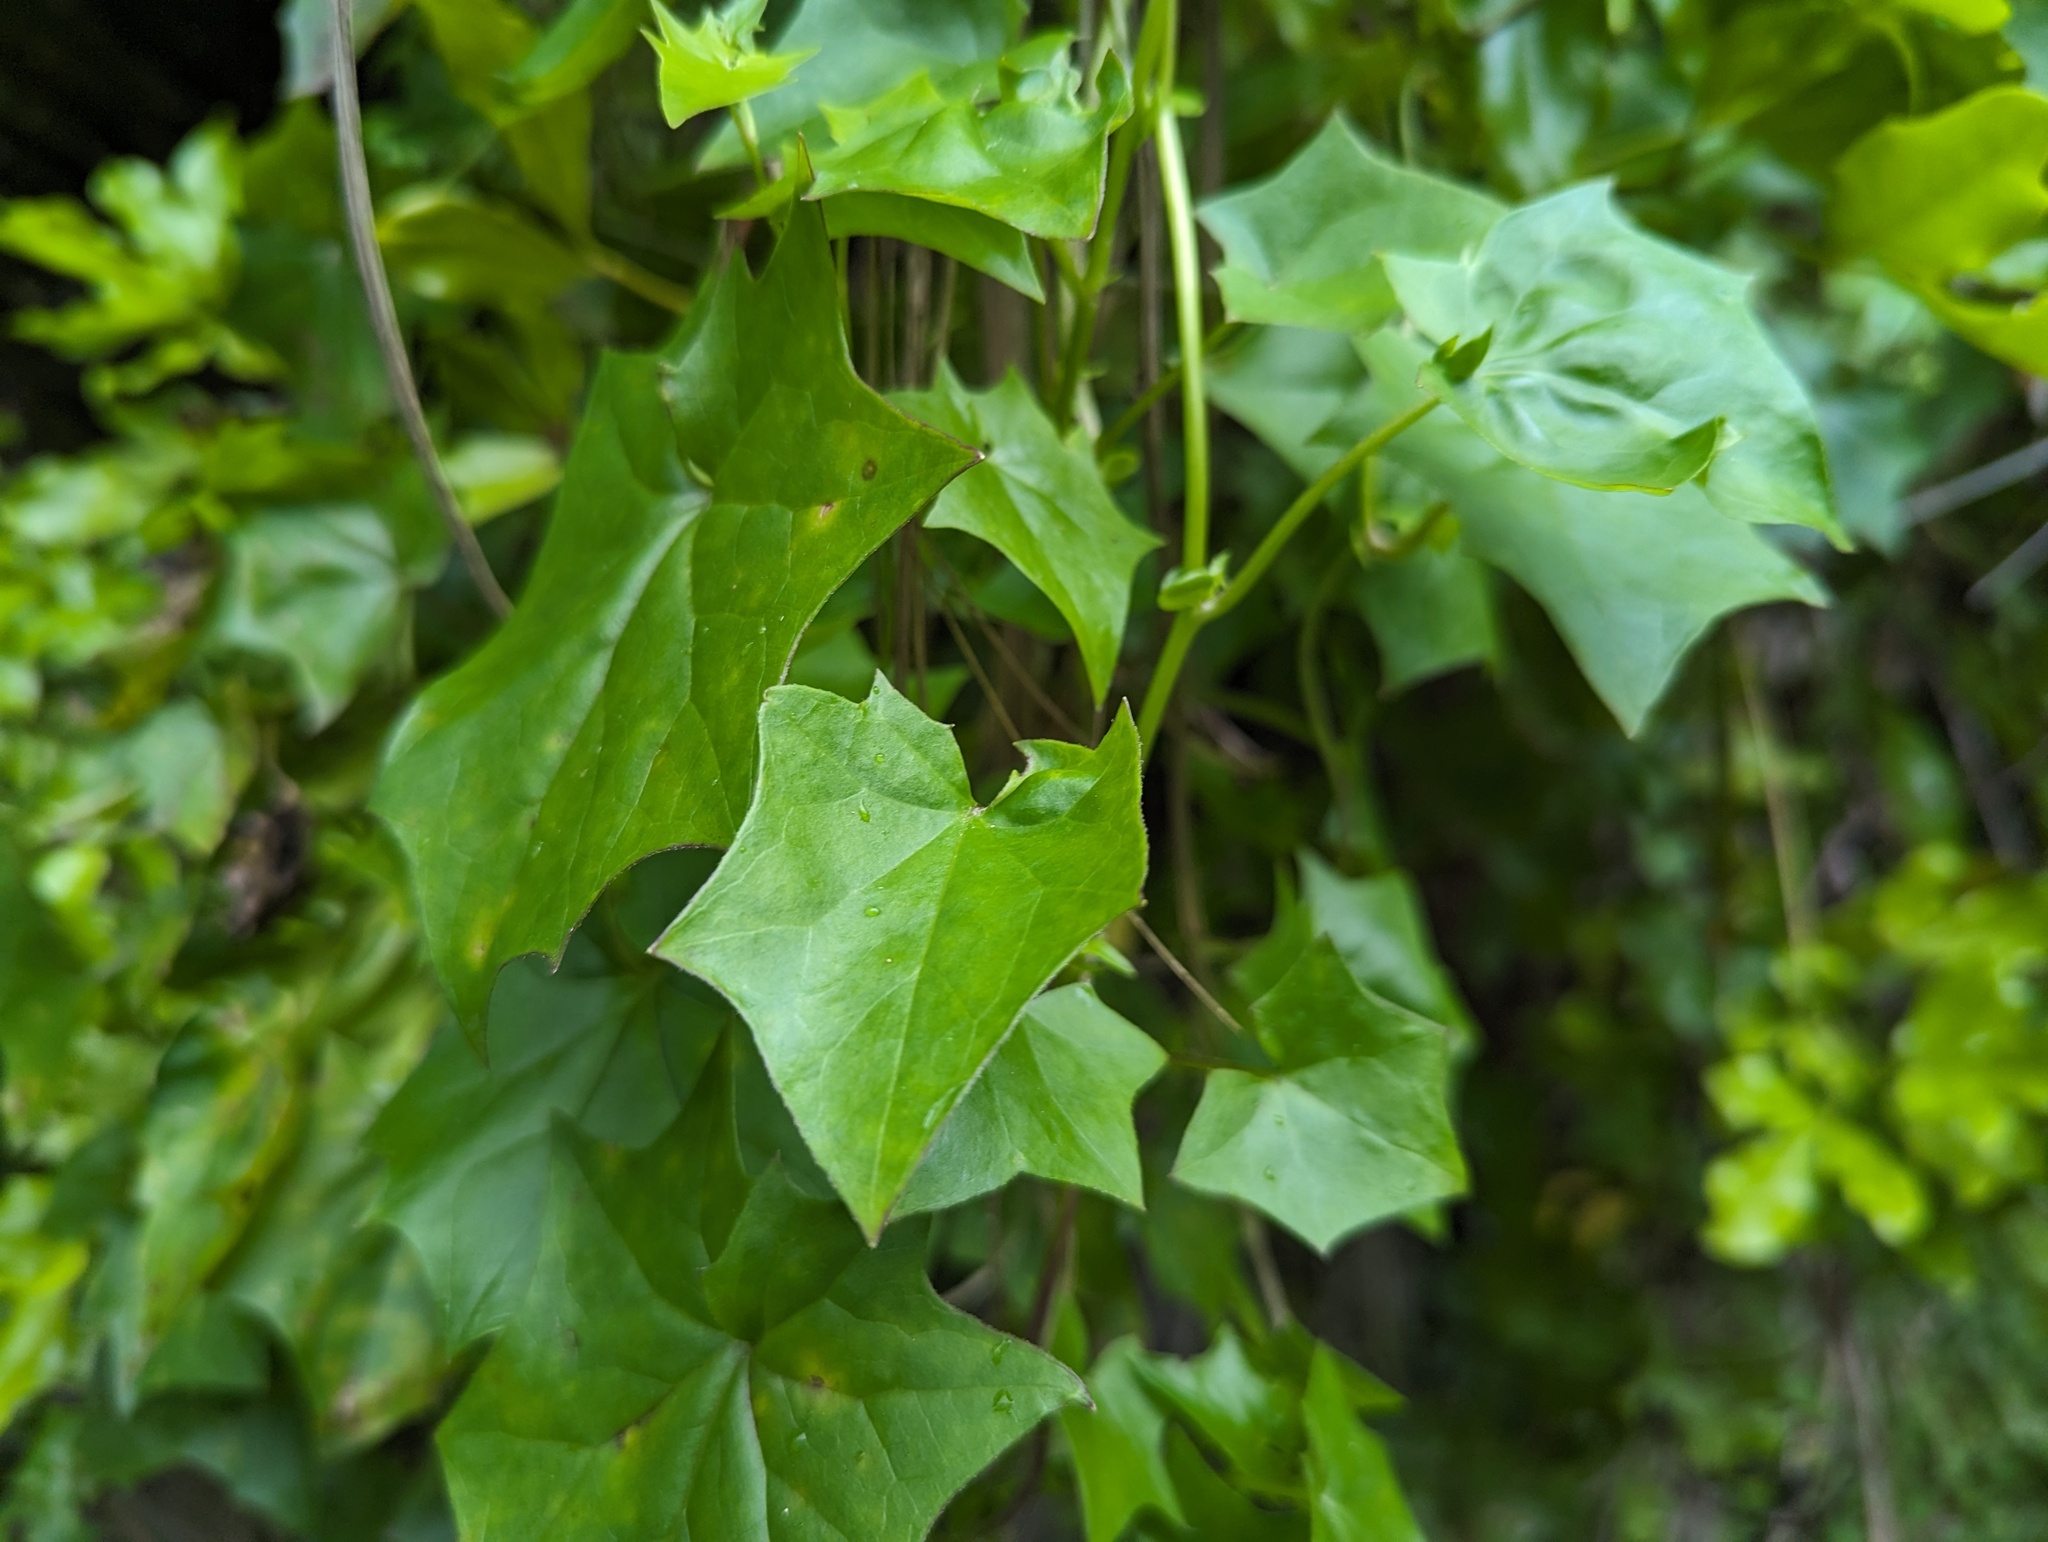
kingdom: Plantae
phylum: Tracheophyta
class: Magnoliopsida
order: Asterales
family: Asteraceae
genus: Delairea
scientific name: Delairea odorata
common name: Cape-ivy
